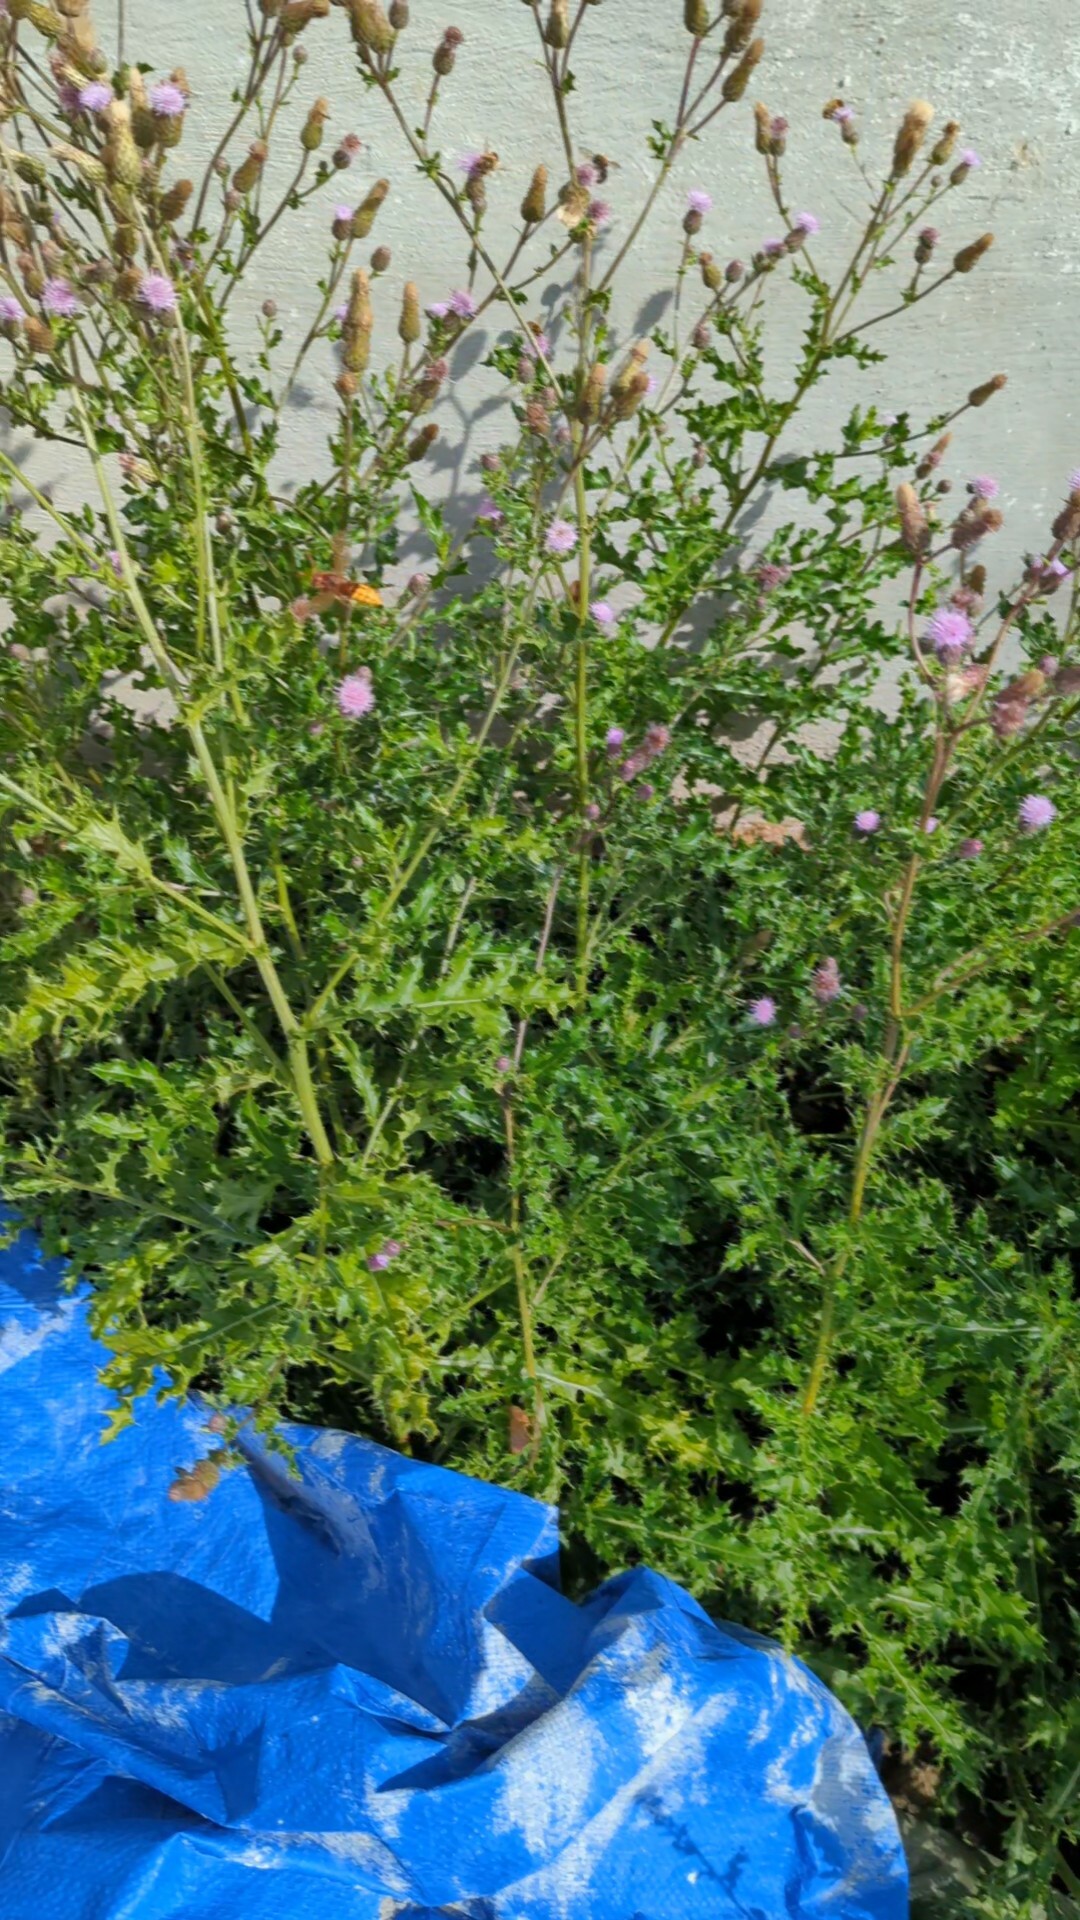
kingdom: Animalia
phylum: Arthropoda
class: Insecta
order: Hymenoptera
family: Vespidae
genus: Vespa
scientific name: Vespa crabro
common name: Hornet
